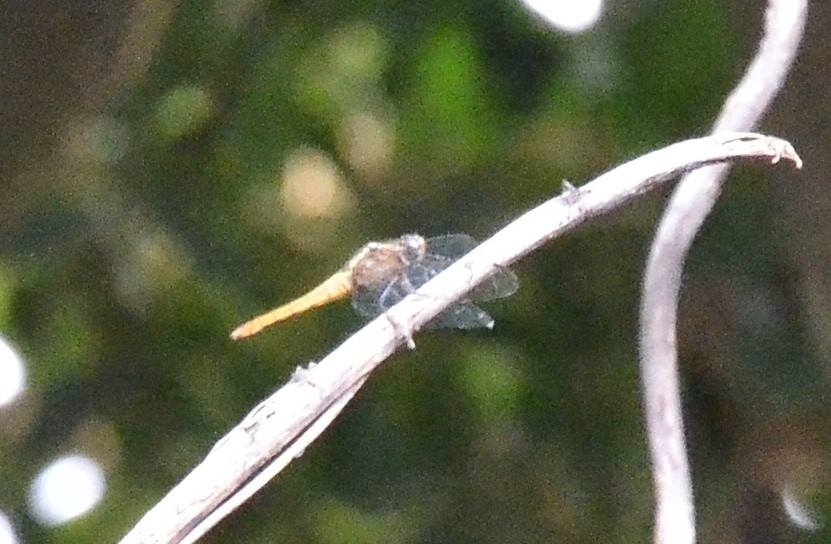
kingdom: Animalia
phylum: Arthropoda
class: Insecta
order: Odonata
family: Libellulidae
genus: Orthetrum
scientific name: Orthetrum pruinosum
